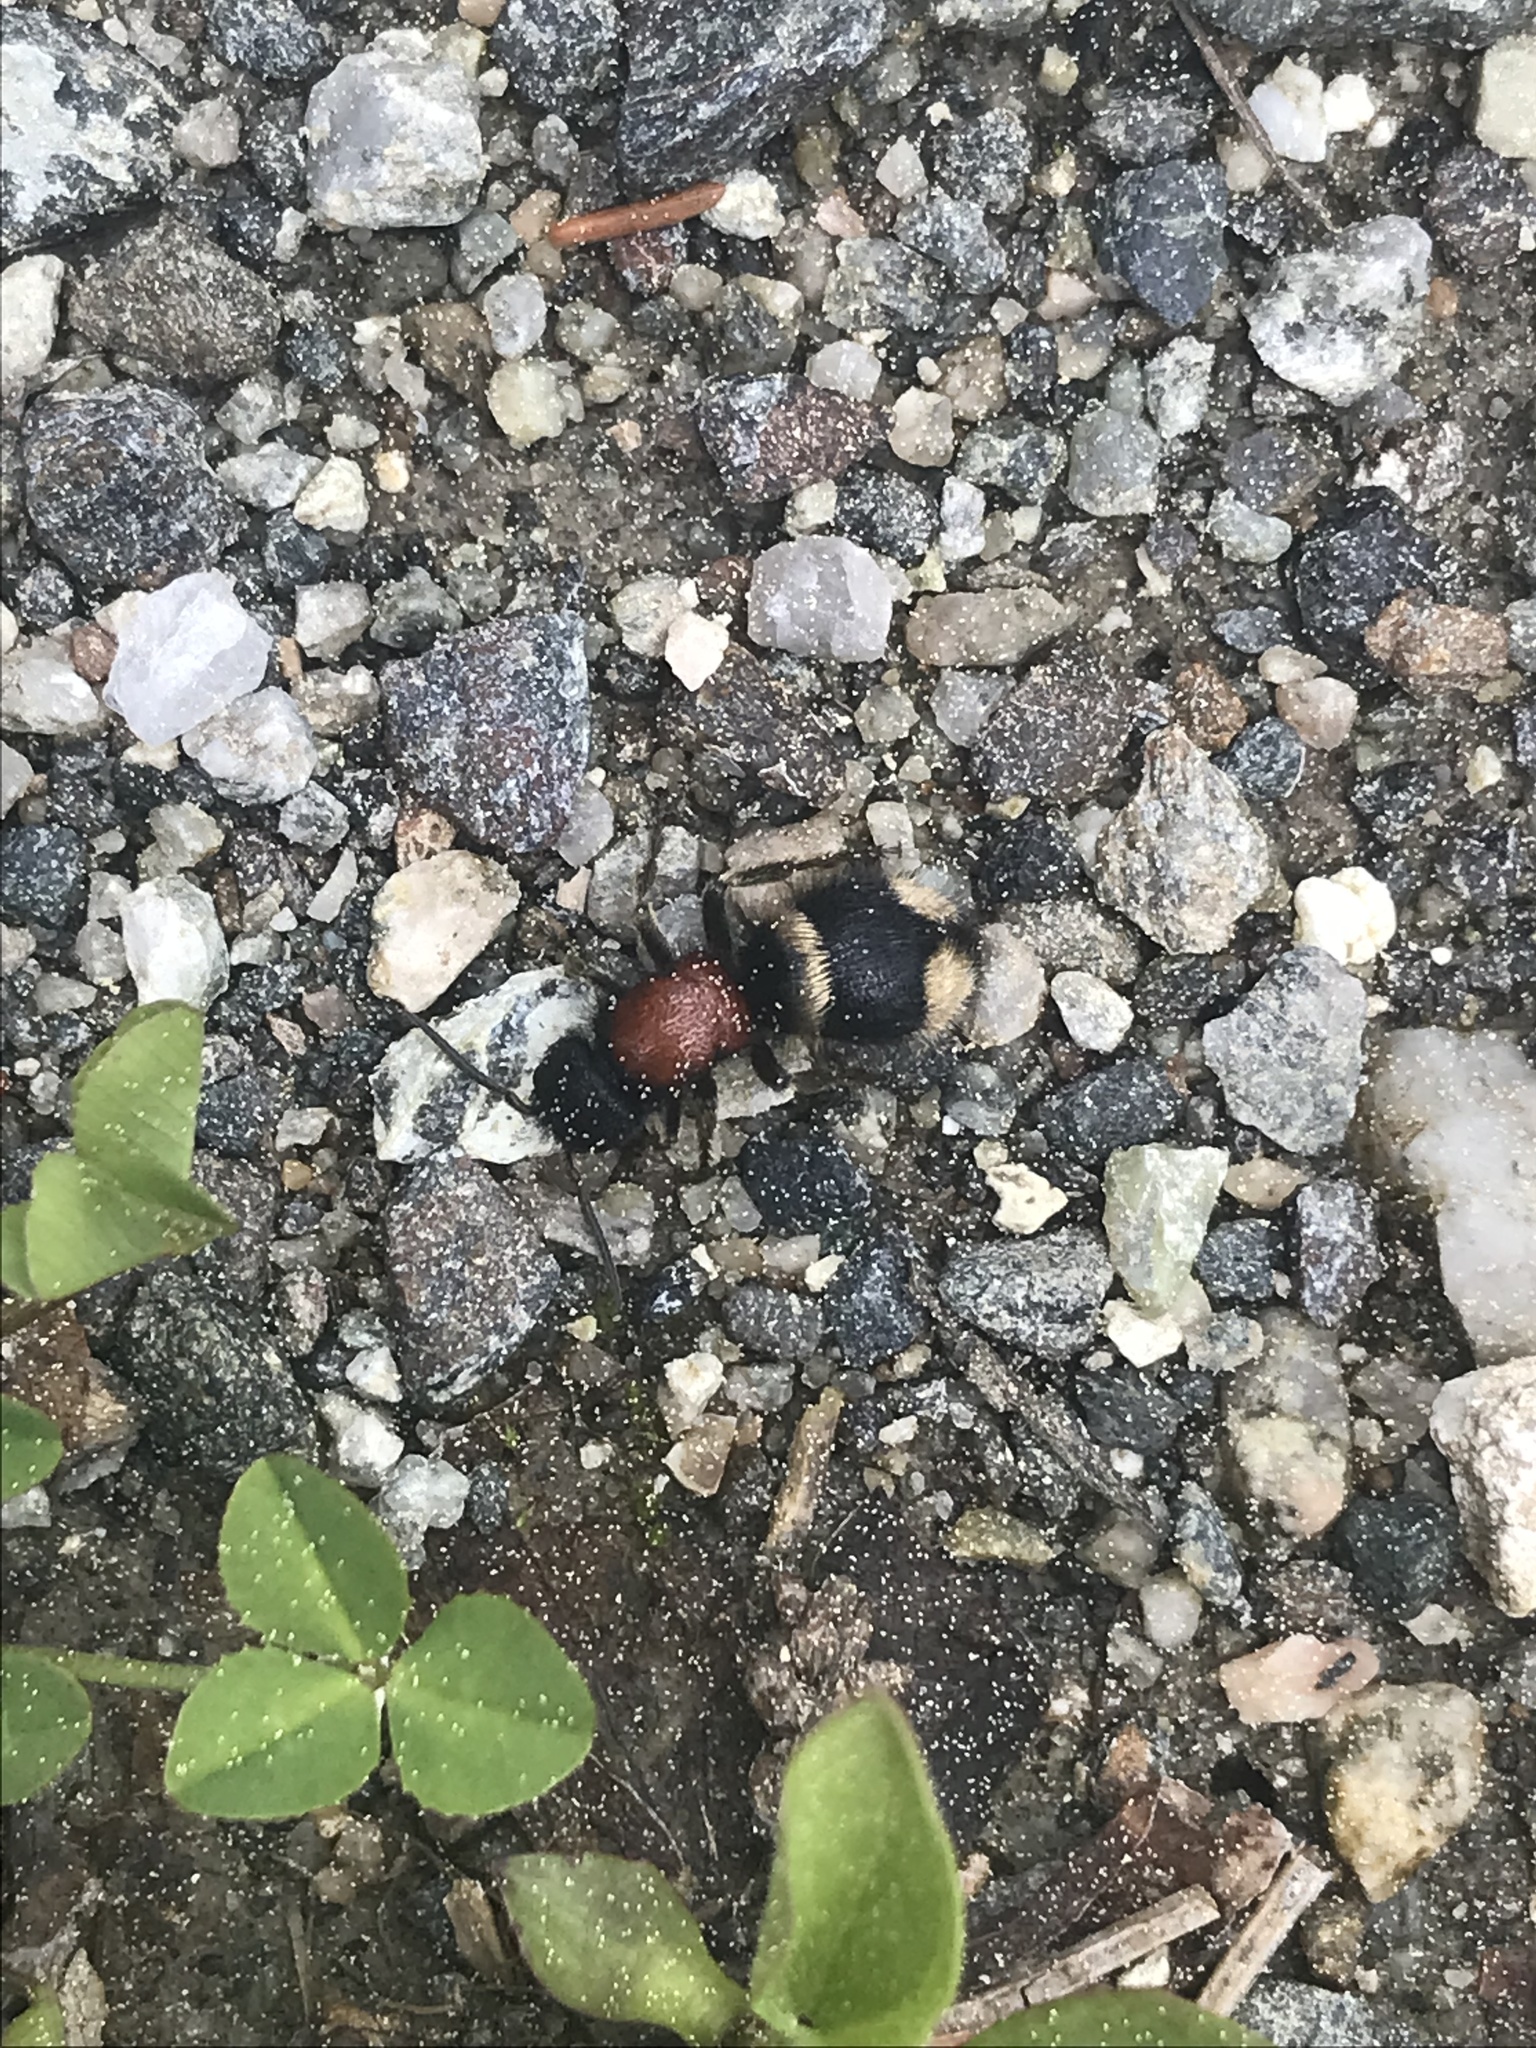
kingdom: Animalia
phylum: Arthropoda
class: Insecta
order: Hymenoptera
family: Mutillidae
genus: Mutilla
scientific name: Mutilla europaea
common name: Large velvet ant
